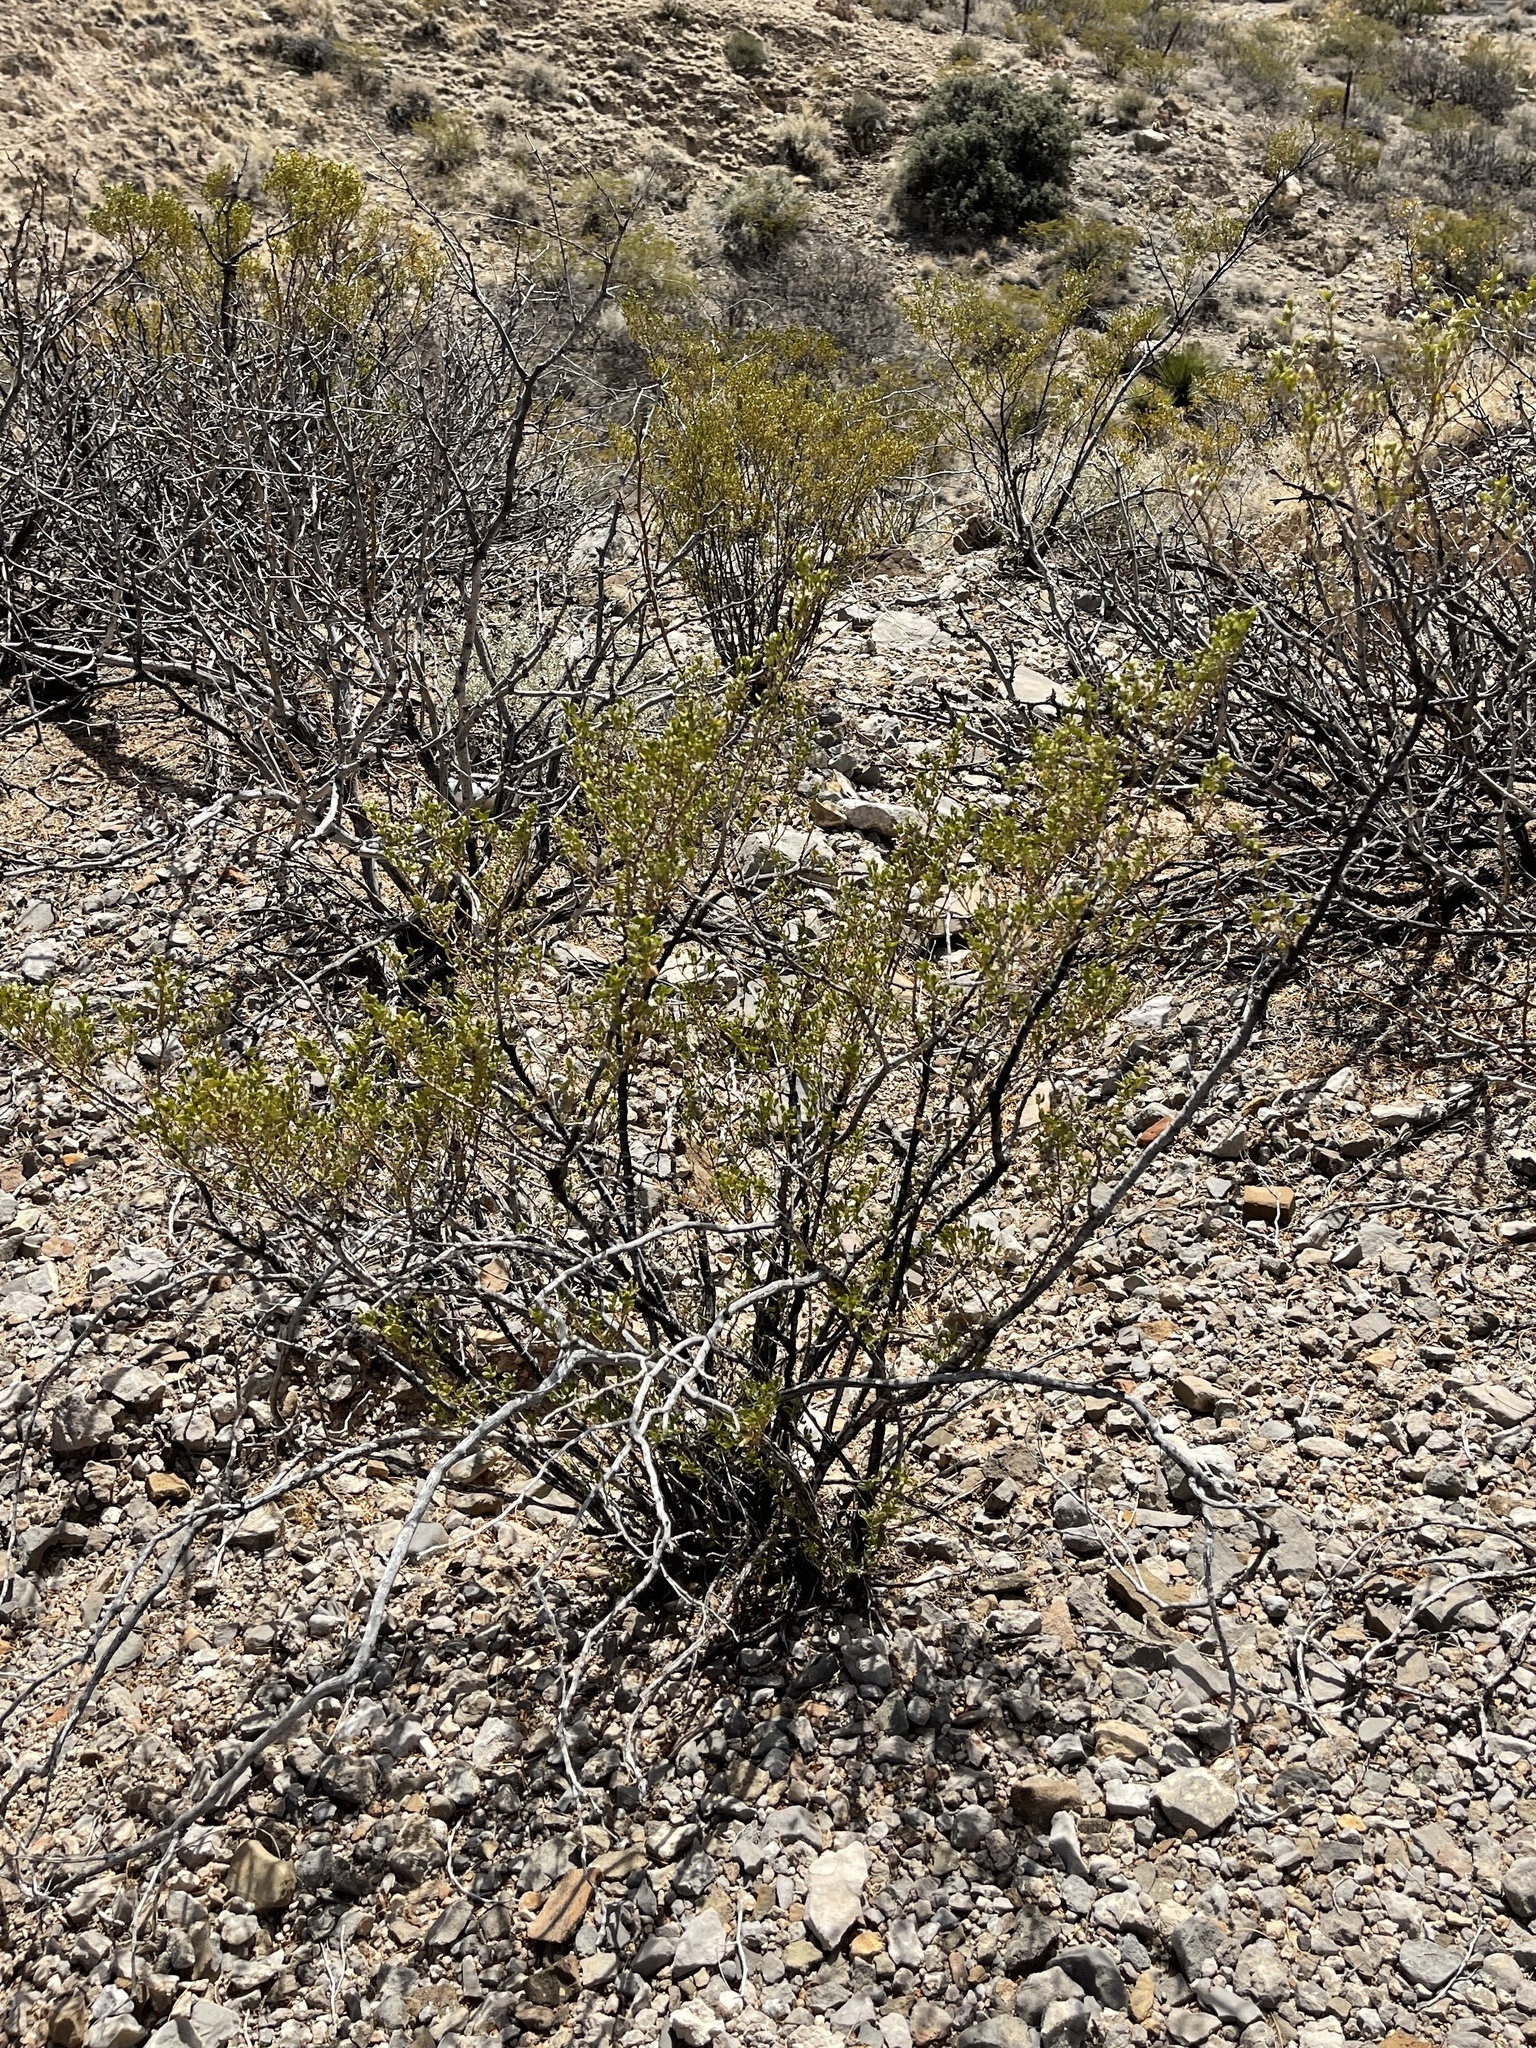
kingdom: Plantae
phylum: Tracheophyta
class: Magnoliopsida
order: Zygophyllales
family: Zygophyllaceae
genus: Larrea
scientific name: Larrea tridentata
